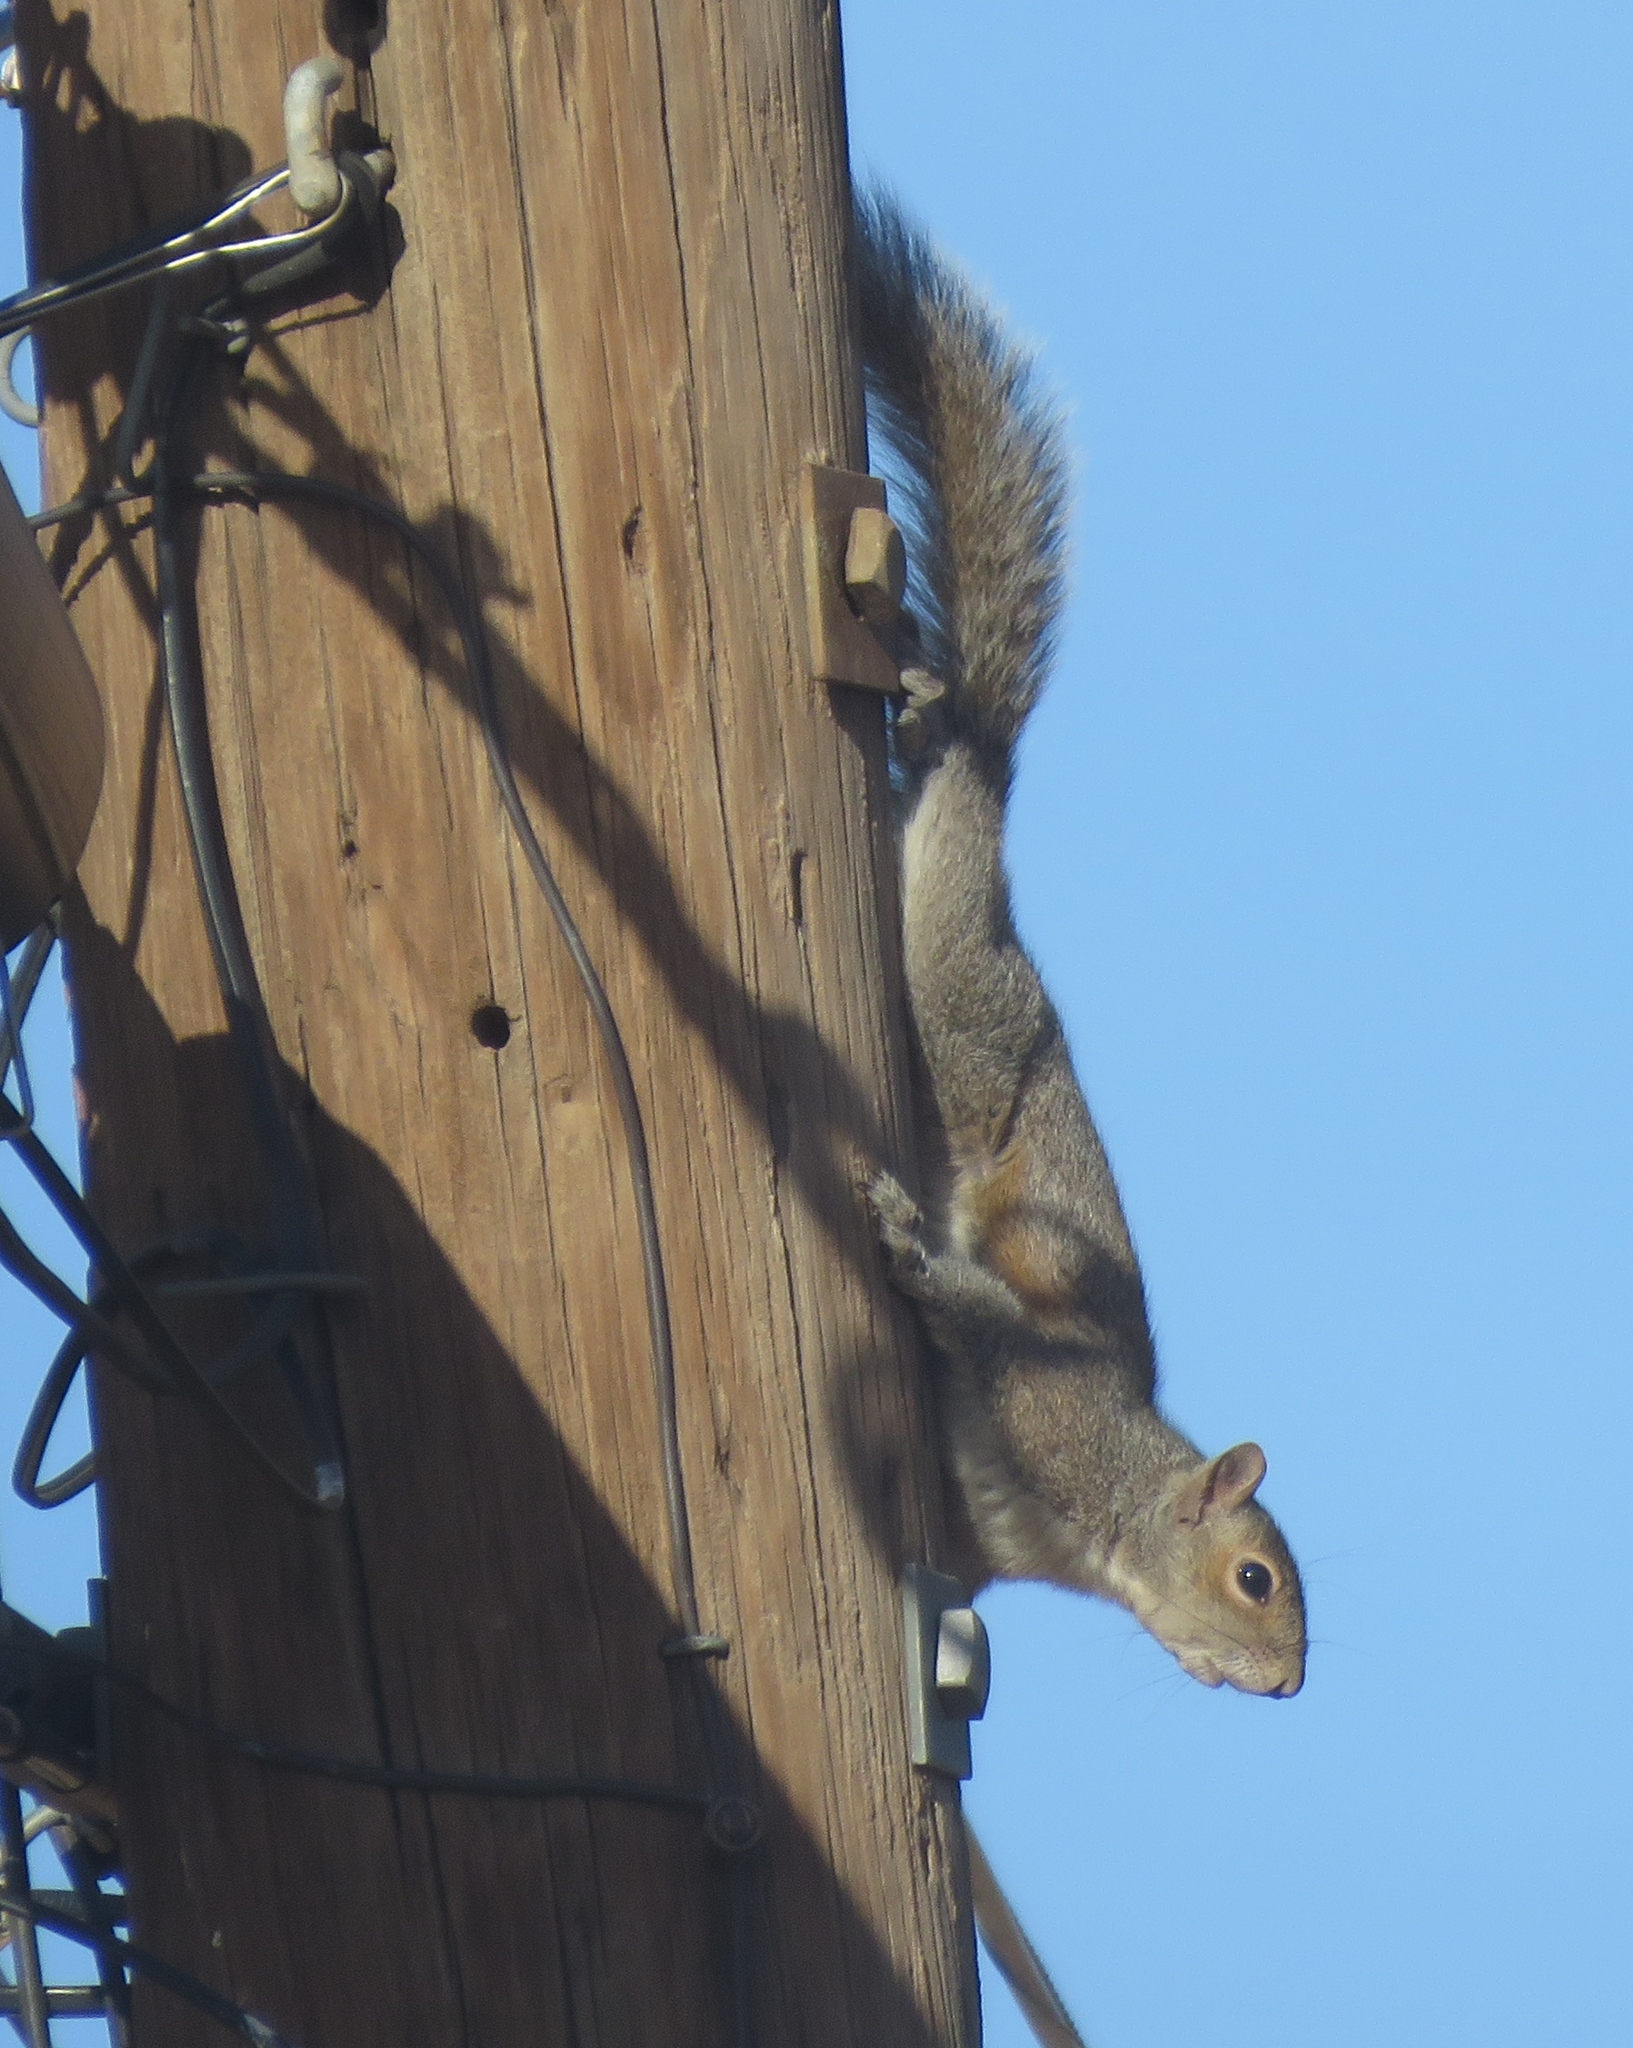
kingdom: Animalia
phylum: Chordata
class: Mammalia
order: Rodentia
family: Sciuridae
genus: Sciurus
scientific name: Sciurus carolinensis
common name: Eastern gray squirrel
